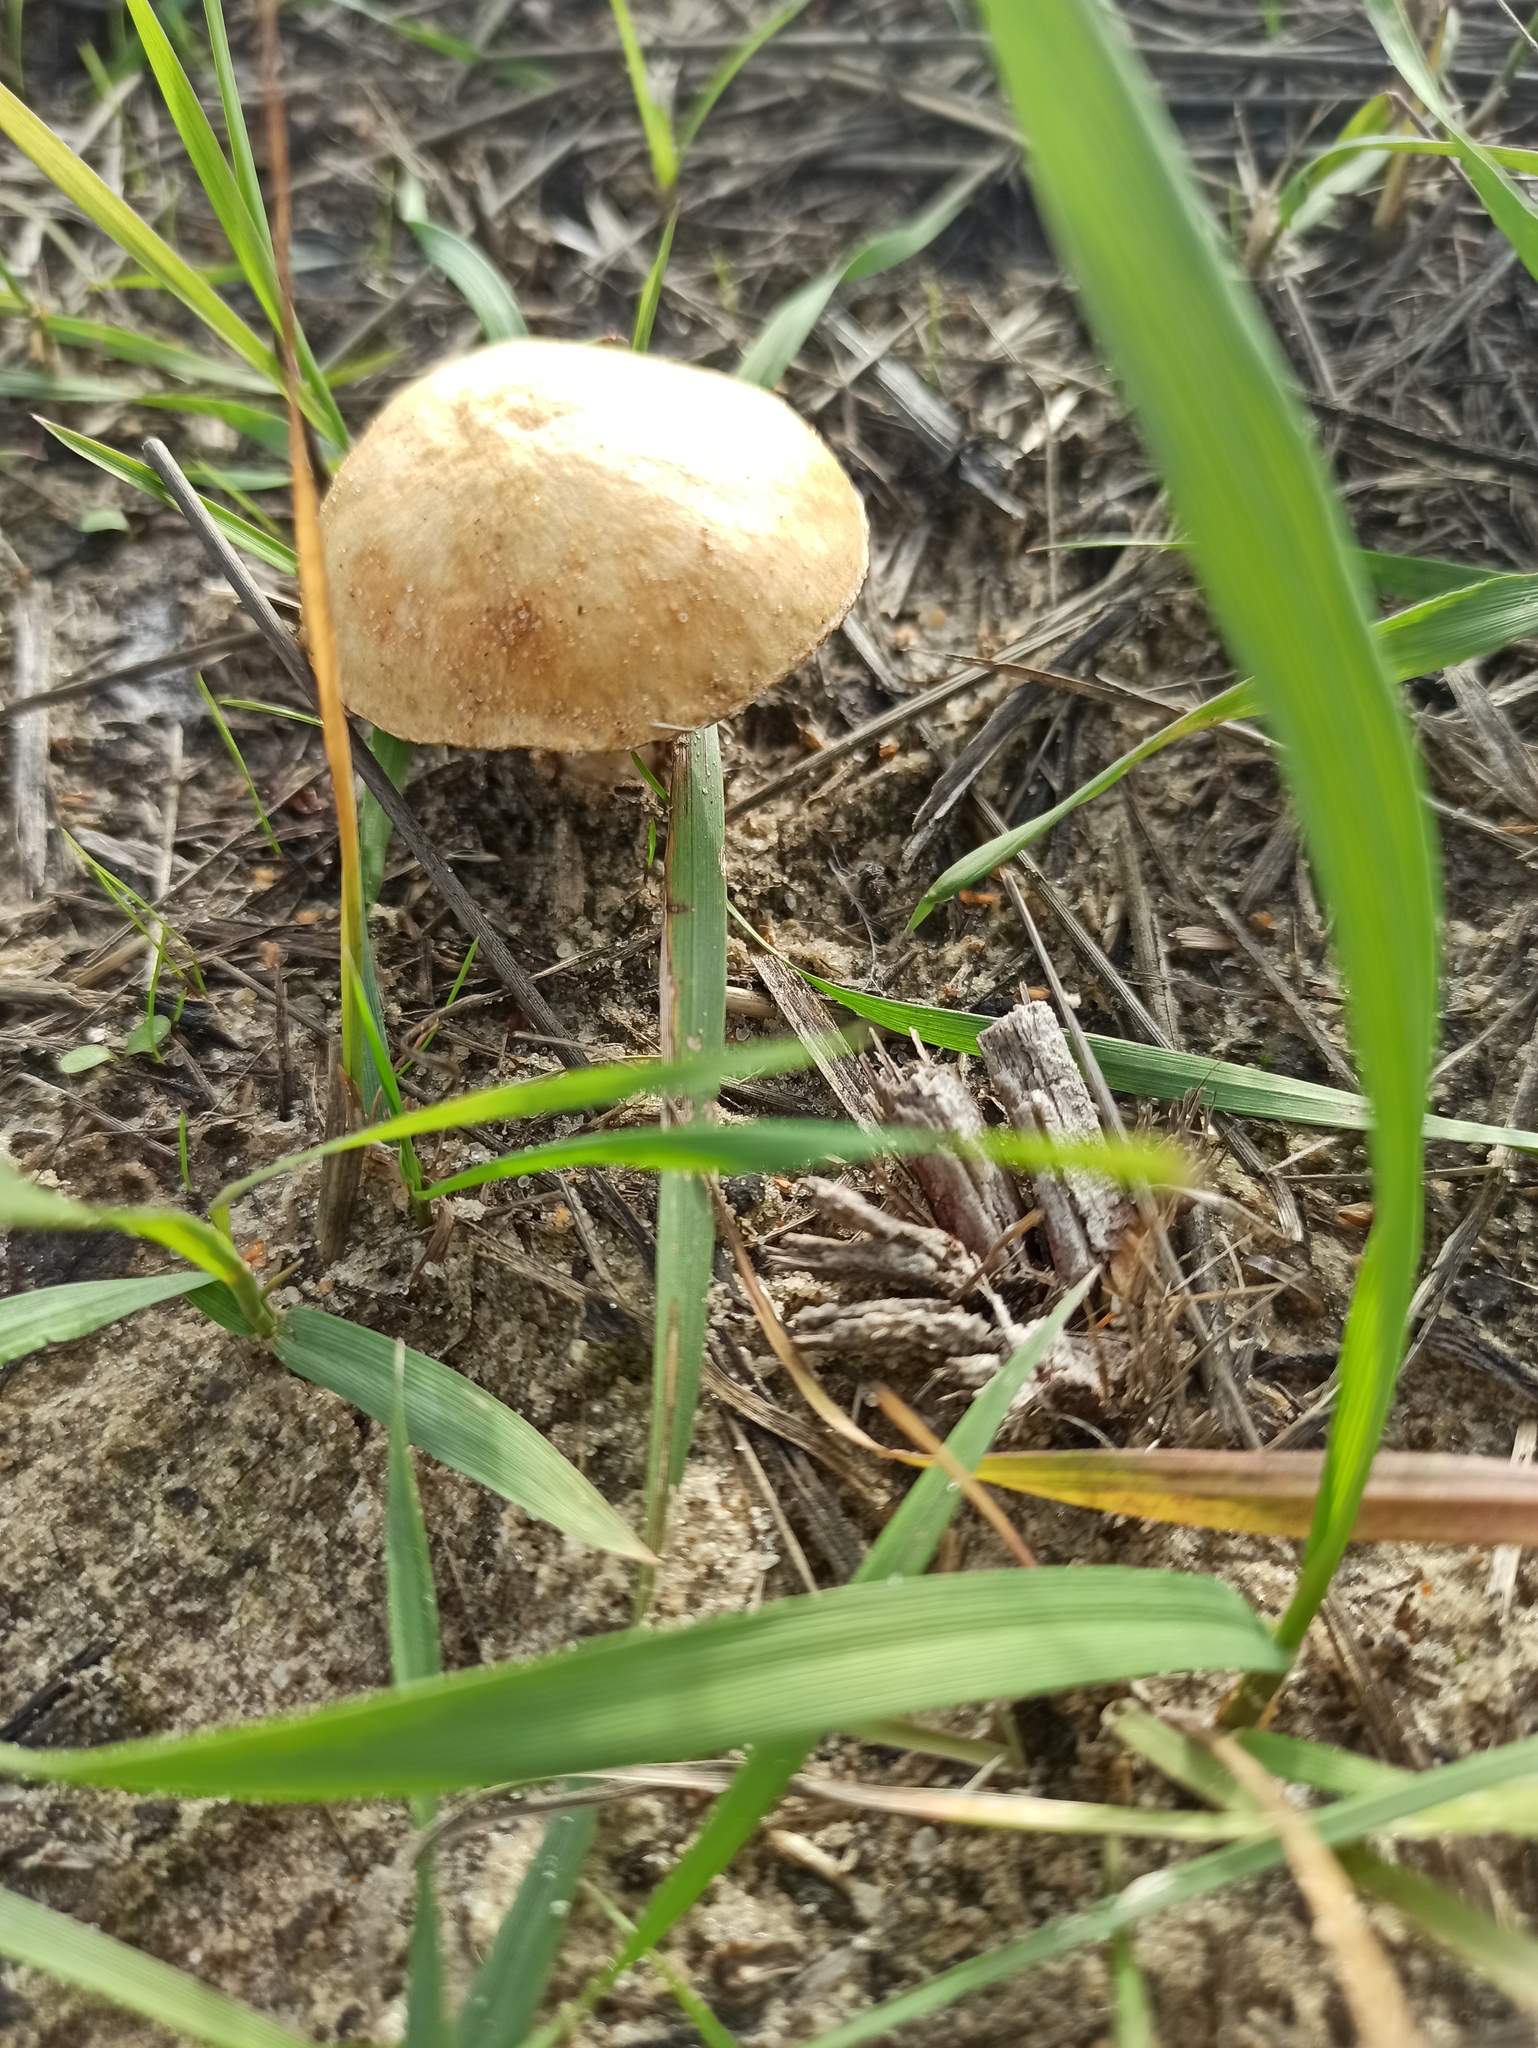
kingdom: Fungi
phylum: Basidiomycota
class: Agaricomycetes
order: Agaricales
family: Hymenogastraceae
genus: Psilocybe
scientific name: Psilocybe coronilla
